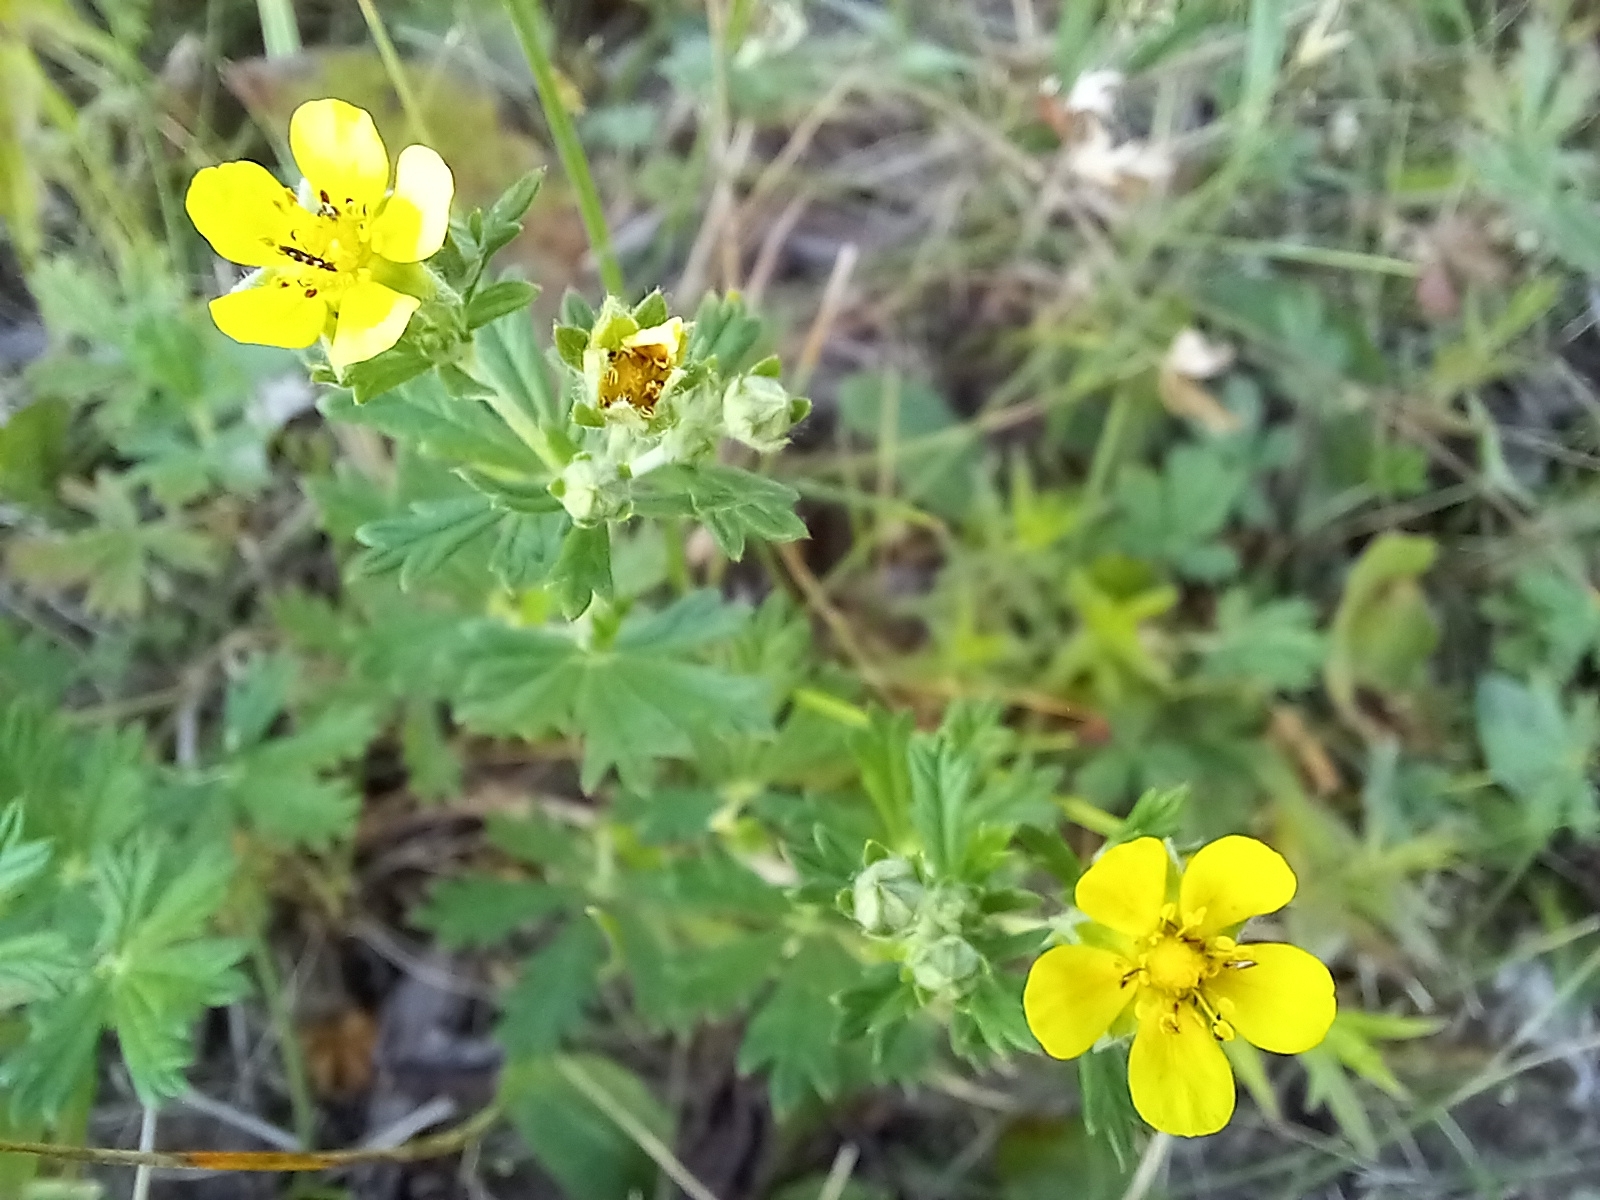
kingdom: Plantae
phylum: Tracheophyta
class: Magnoliopsida
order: Rosales
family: Rosaceae
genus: Potentilla
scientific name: Potentilla argentea
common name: Hoary cinquefoil
